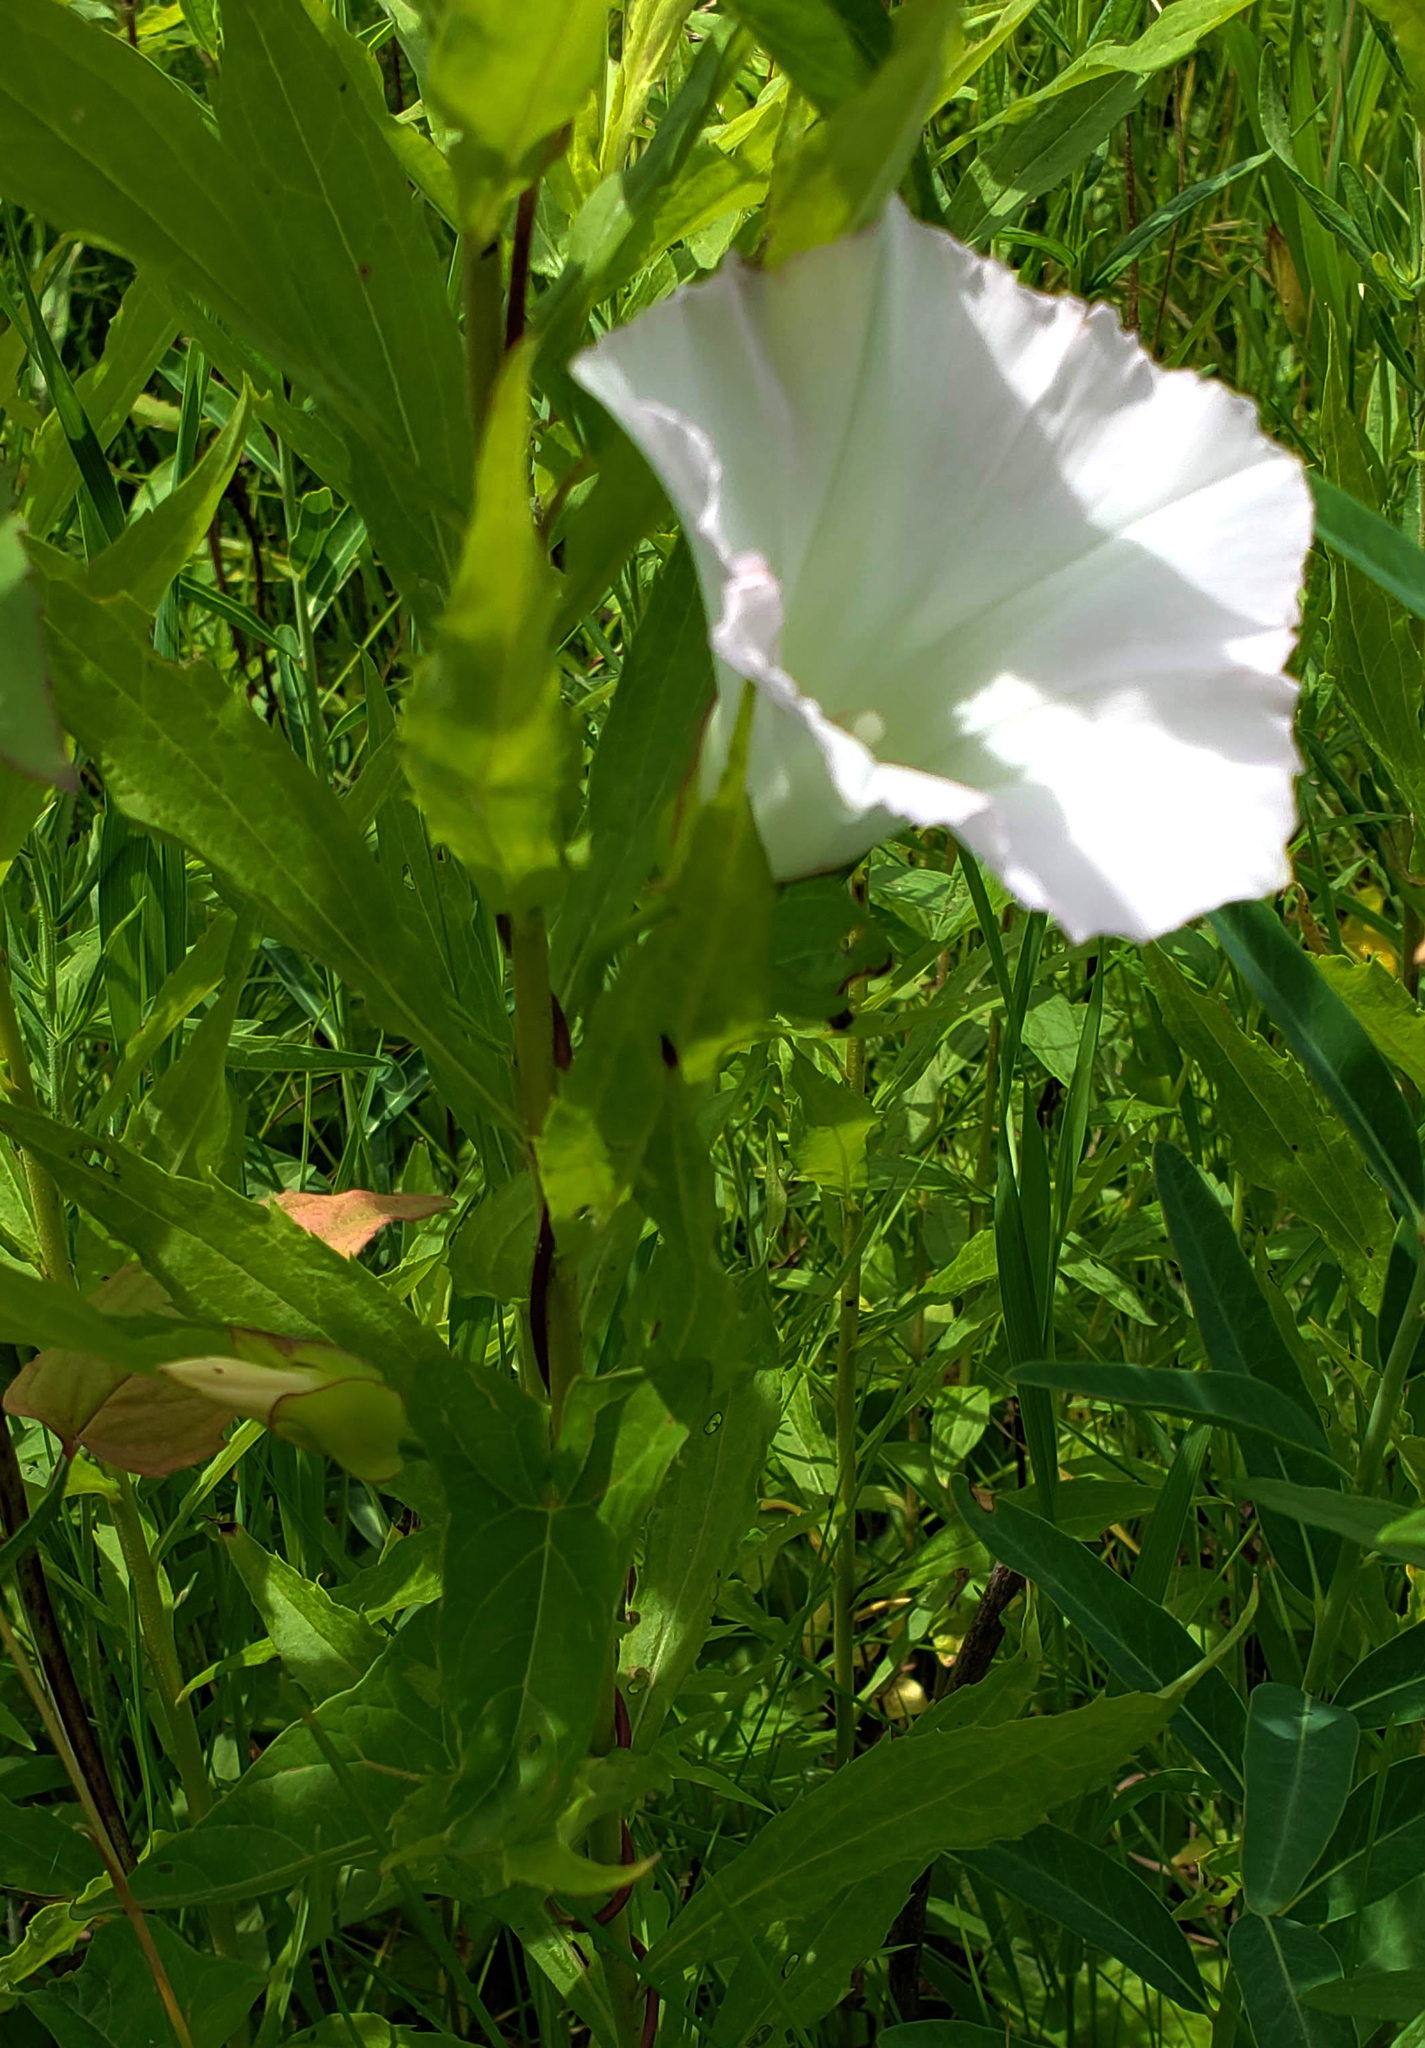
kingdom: Plantae
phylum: Tracheophyta
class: Magnoliopsida
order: Solanales
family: Convolvulaceae
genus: Calystegia
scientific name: Calystegia sepium
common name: Hedge bindweed
